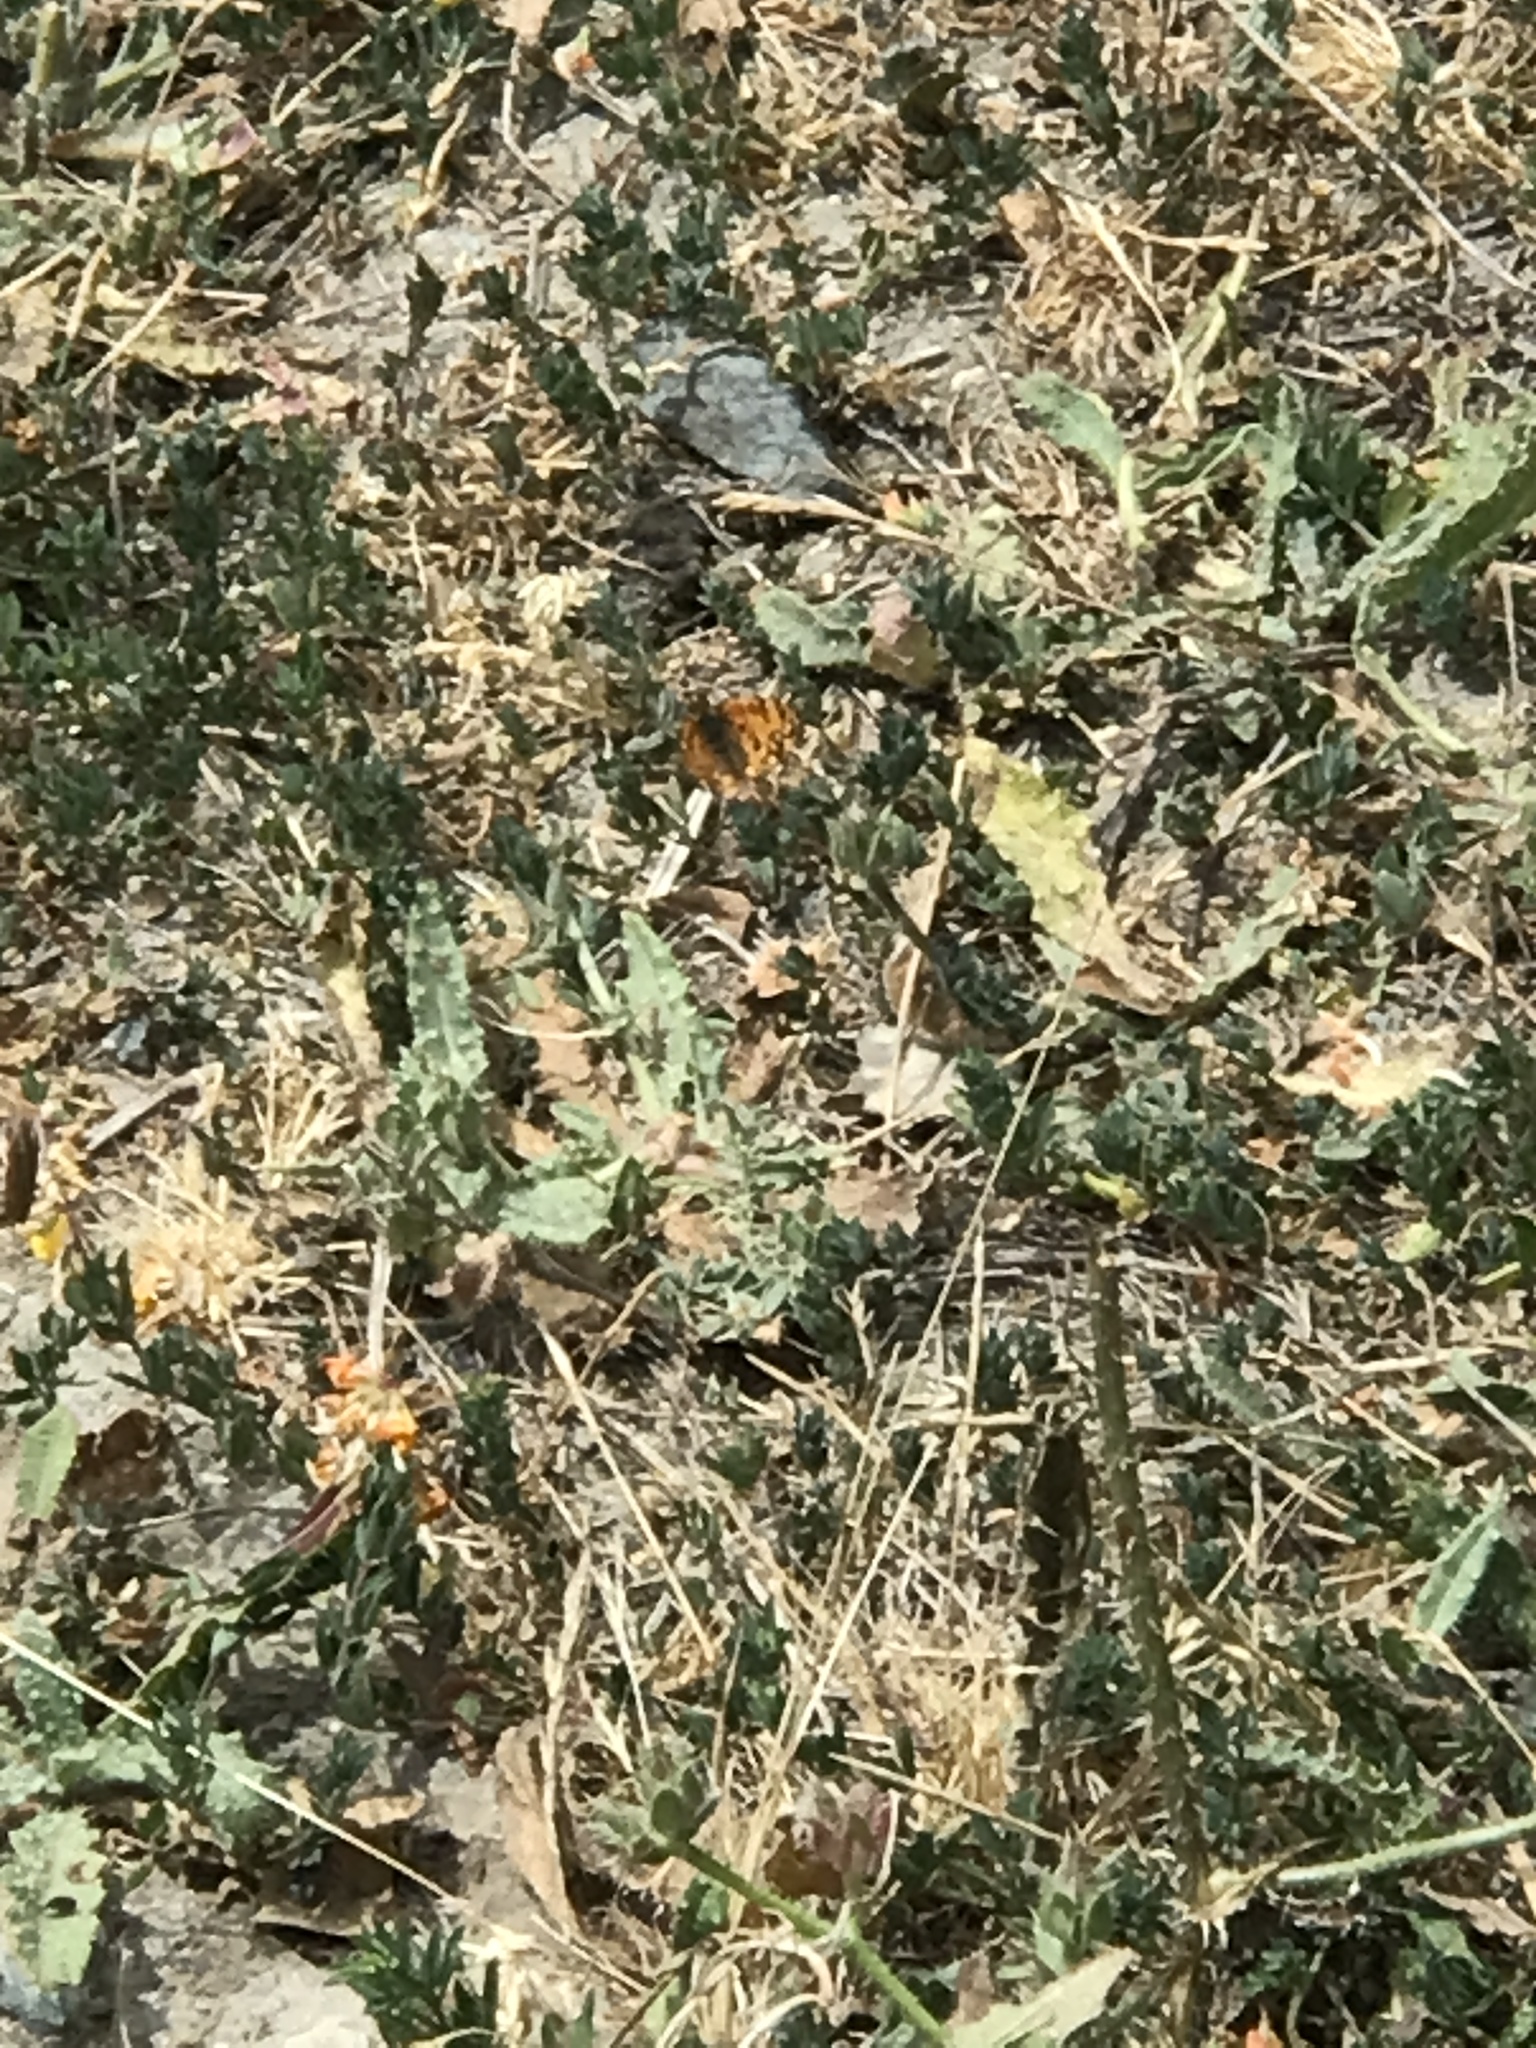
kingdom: Animalia
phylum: Arthropoda
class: Insecta
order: Lepidoptera
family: Nymphalidae
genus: Eresia
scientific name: Eresia aveyrona
